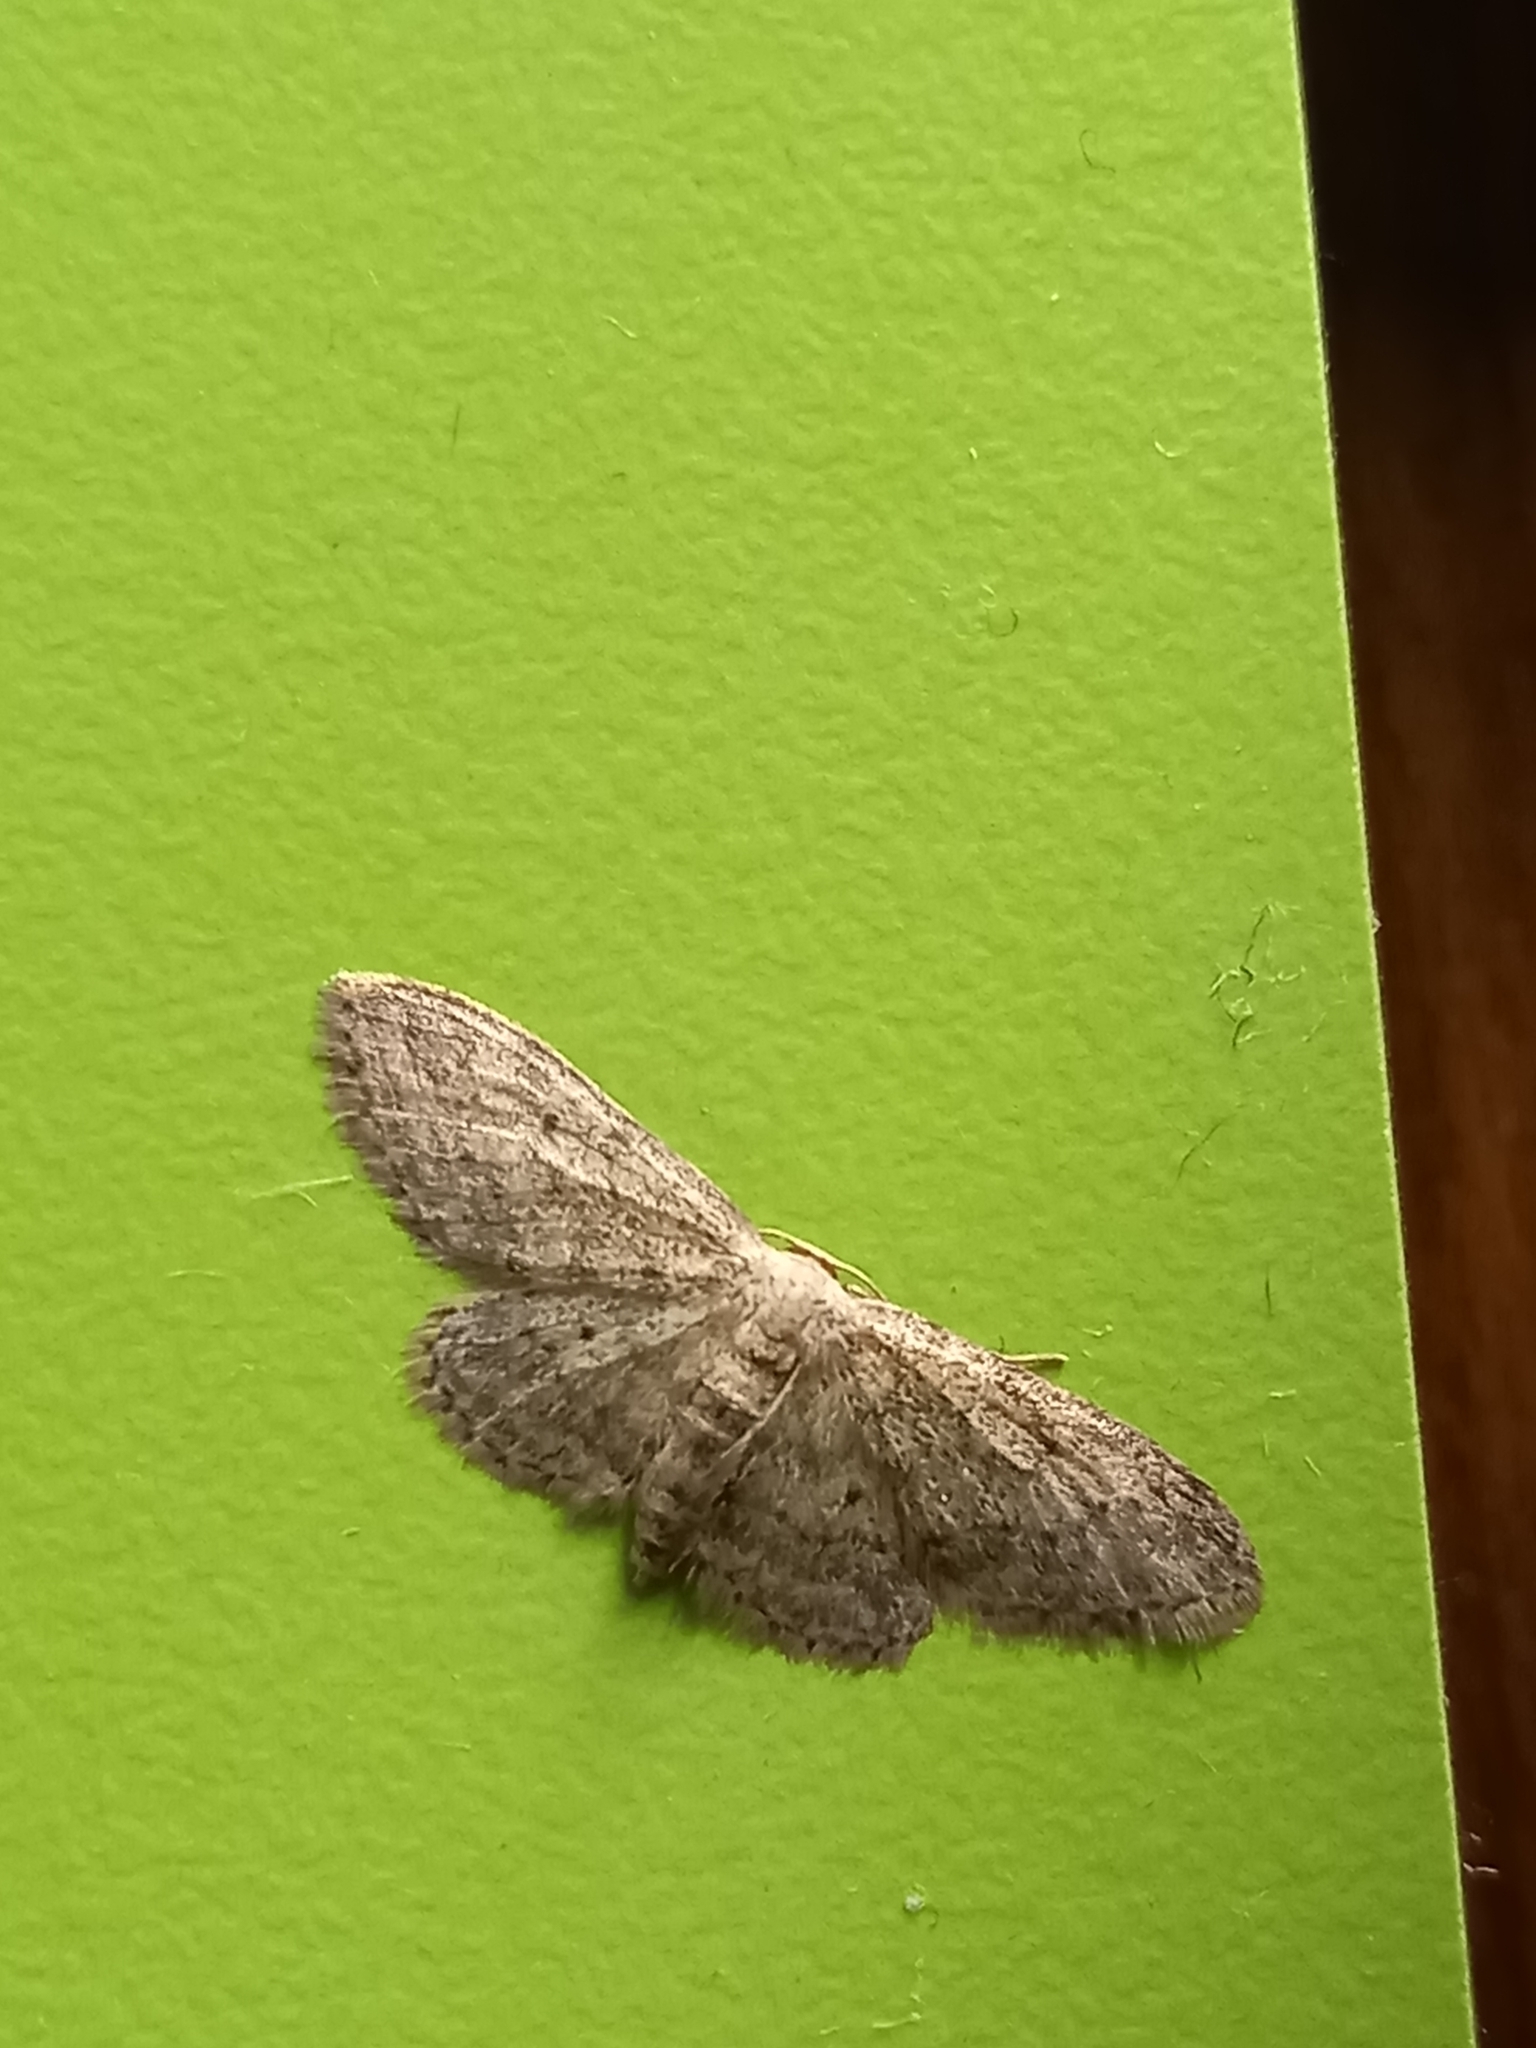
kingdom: Animalia
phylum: Arthropoda
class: Insecta
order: Lepidoptera
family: Geometridae
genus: Idaea
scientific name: Idaea seriata
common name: Small dusty wave
